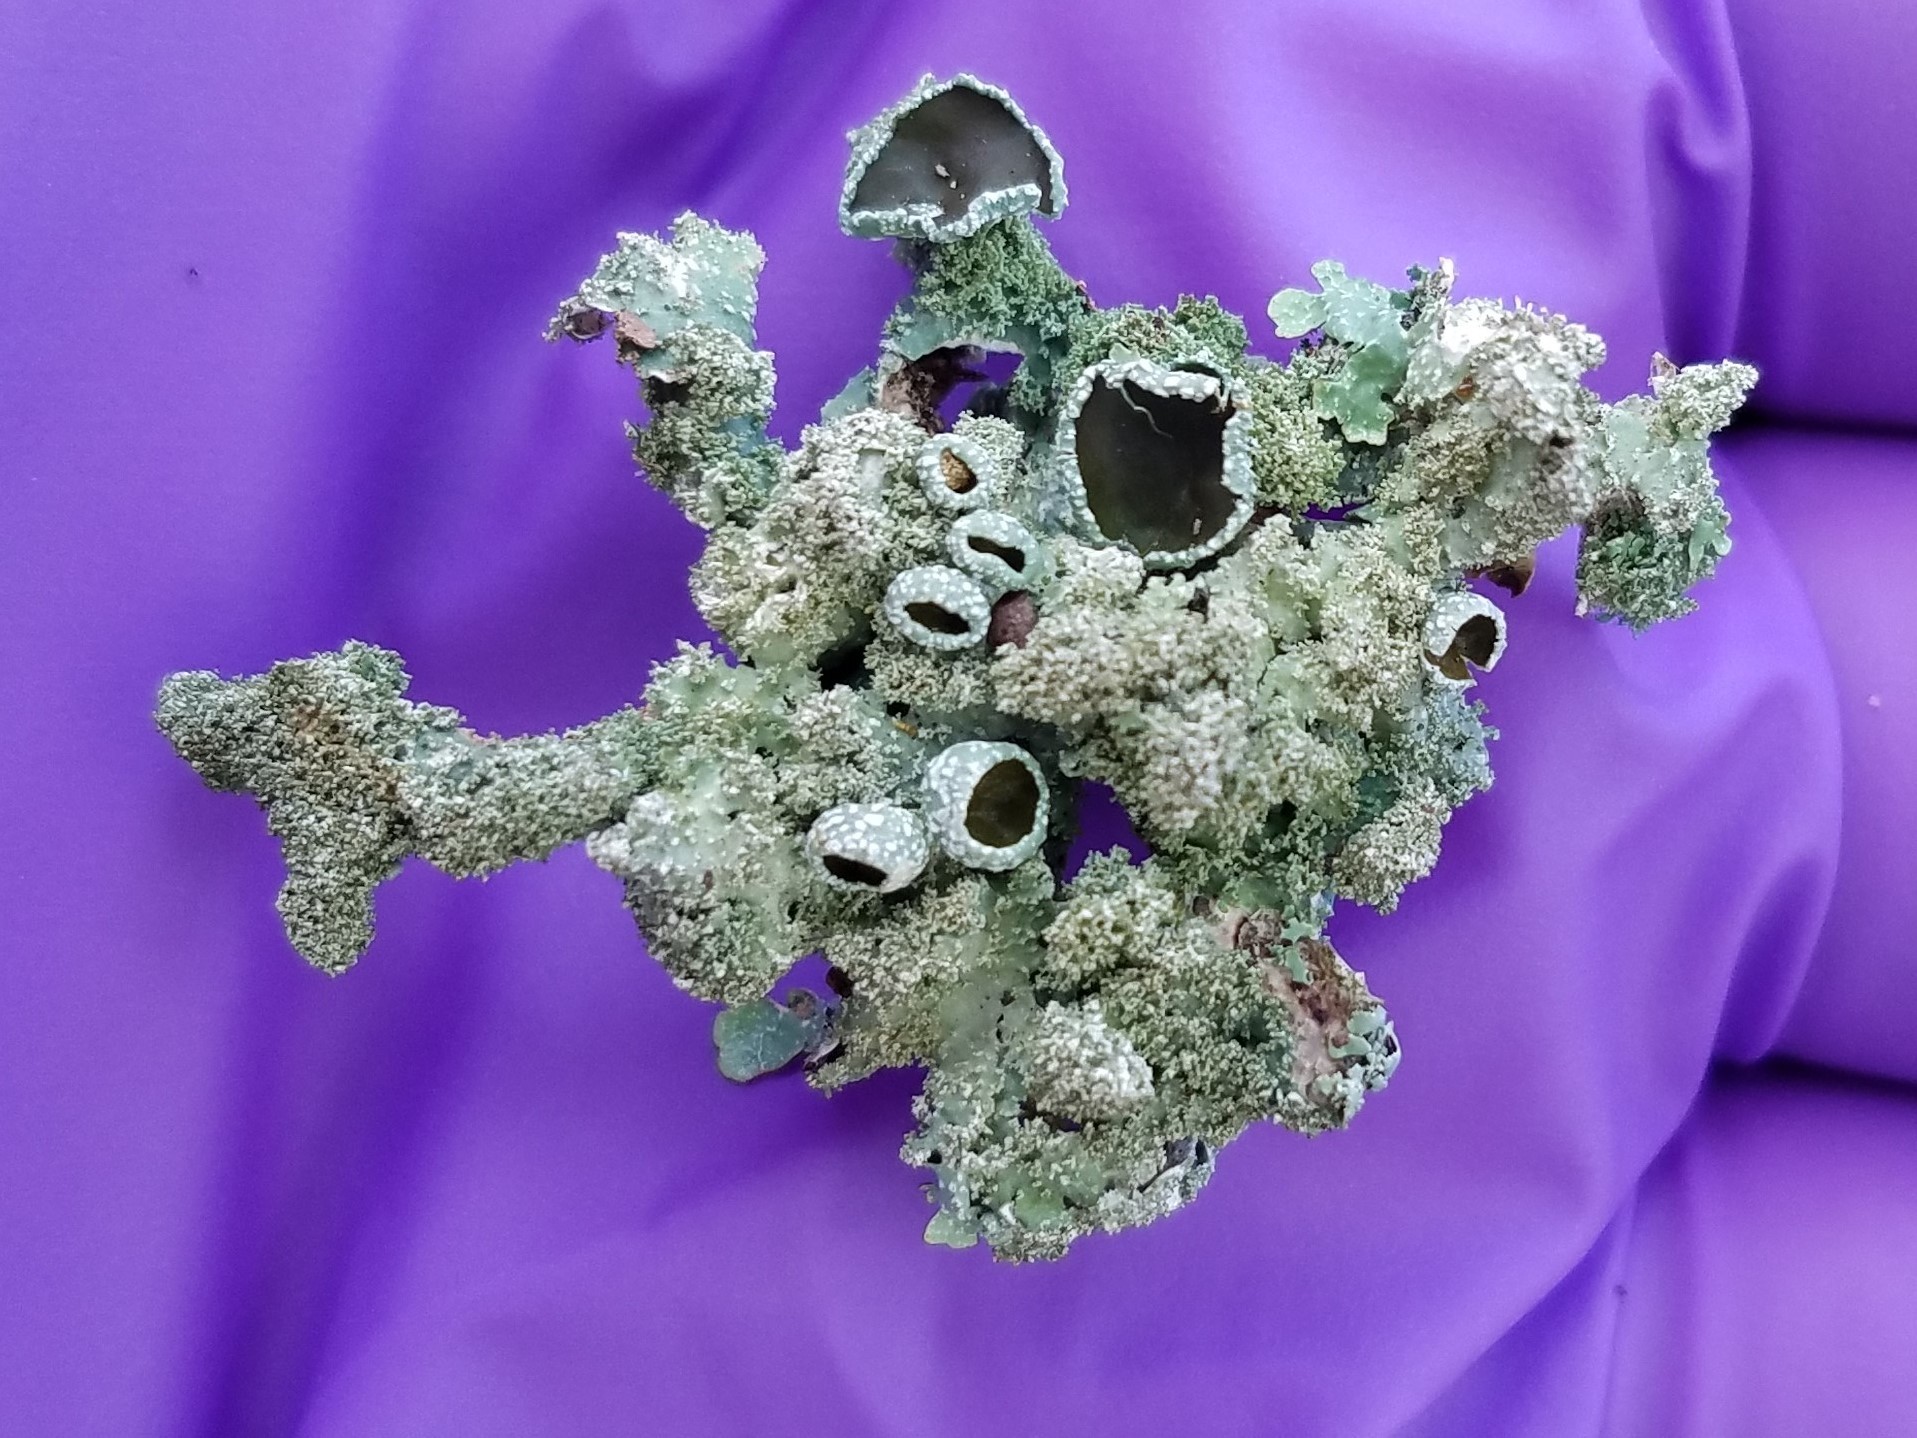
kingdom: Fungi
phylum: Ascomycota
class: Lecanoromycetes
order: Lecanorales
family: Parmeliaceae
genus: Punctelia
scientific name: Punctelia rudecta
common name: Rough speckled shield lichen
